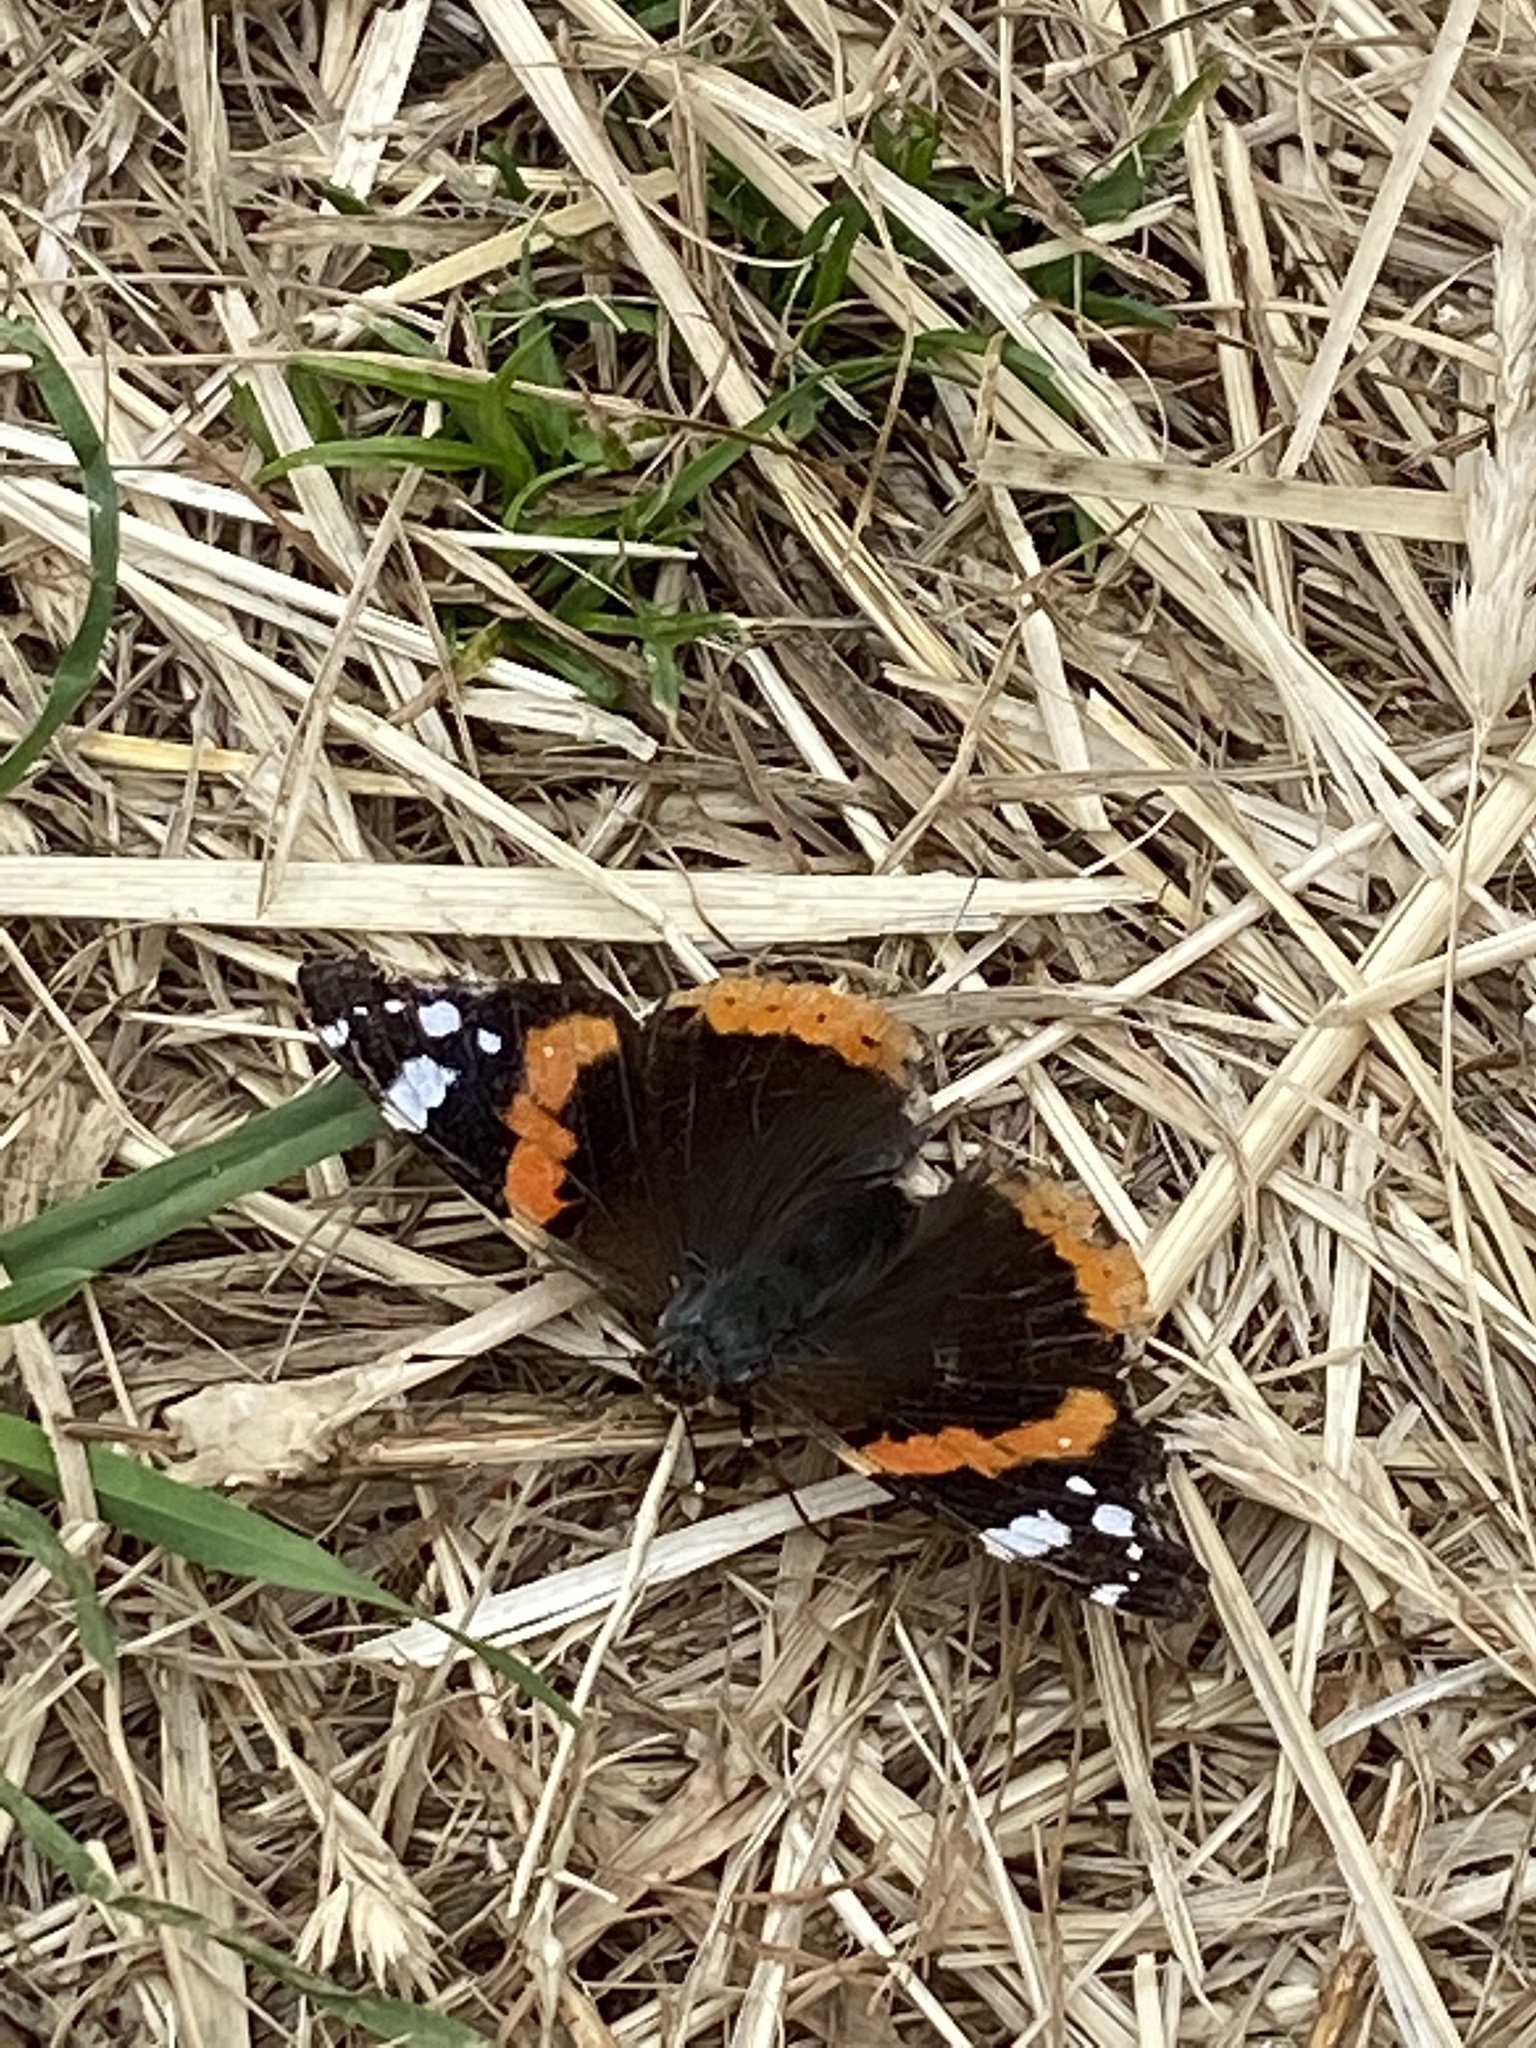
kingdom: Animalia
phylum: Arthropoda
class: Insecta
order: Lepidoptera
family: Nymphalidae
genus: Vanessa
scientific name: Vanessa atalanta
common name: Red admiral
